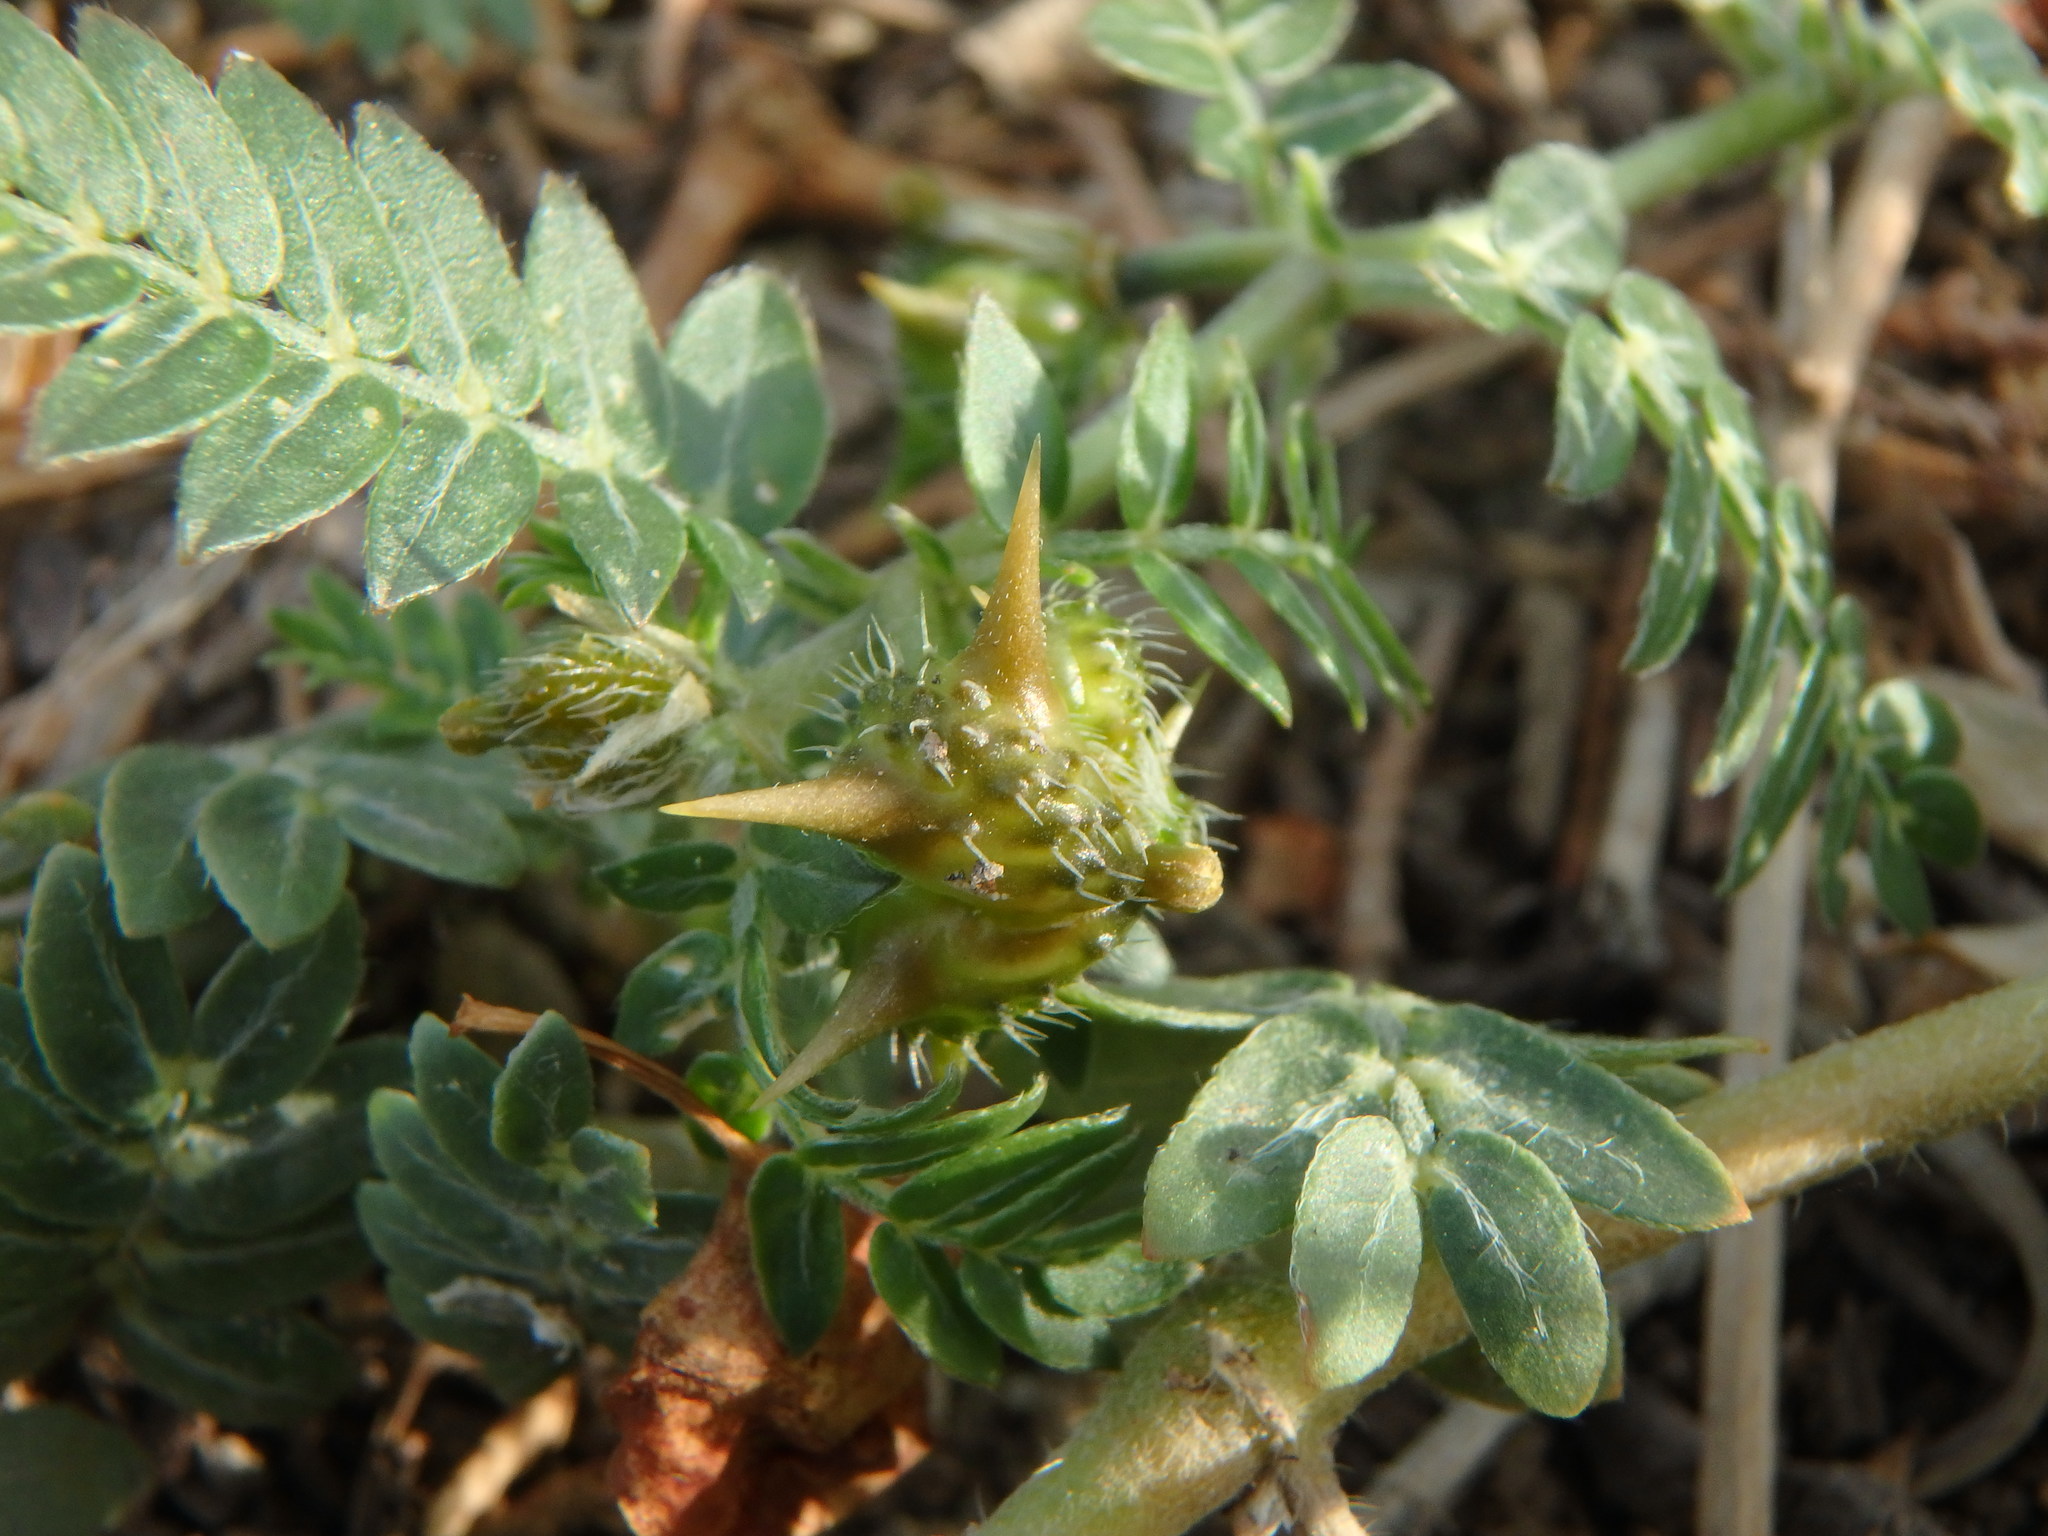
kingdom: Plantae
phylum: Tracheophyta
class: Magnoliopsida
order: Zygophyllales
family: Zygophyllaceae
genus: Tribulus
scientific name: Tribulus terrestris
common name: Puncturevine
